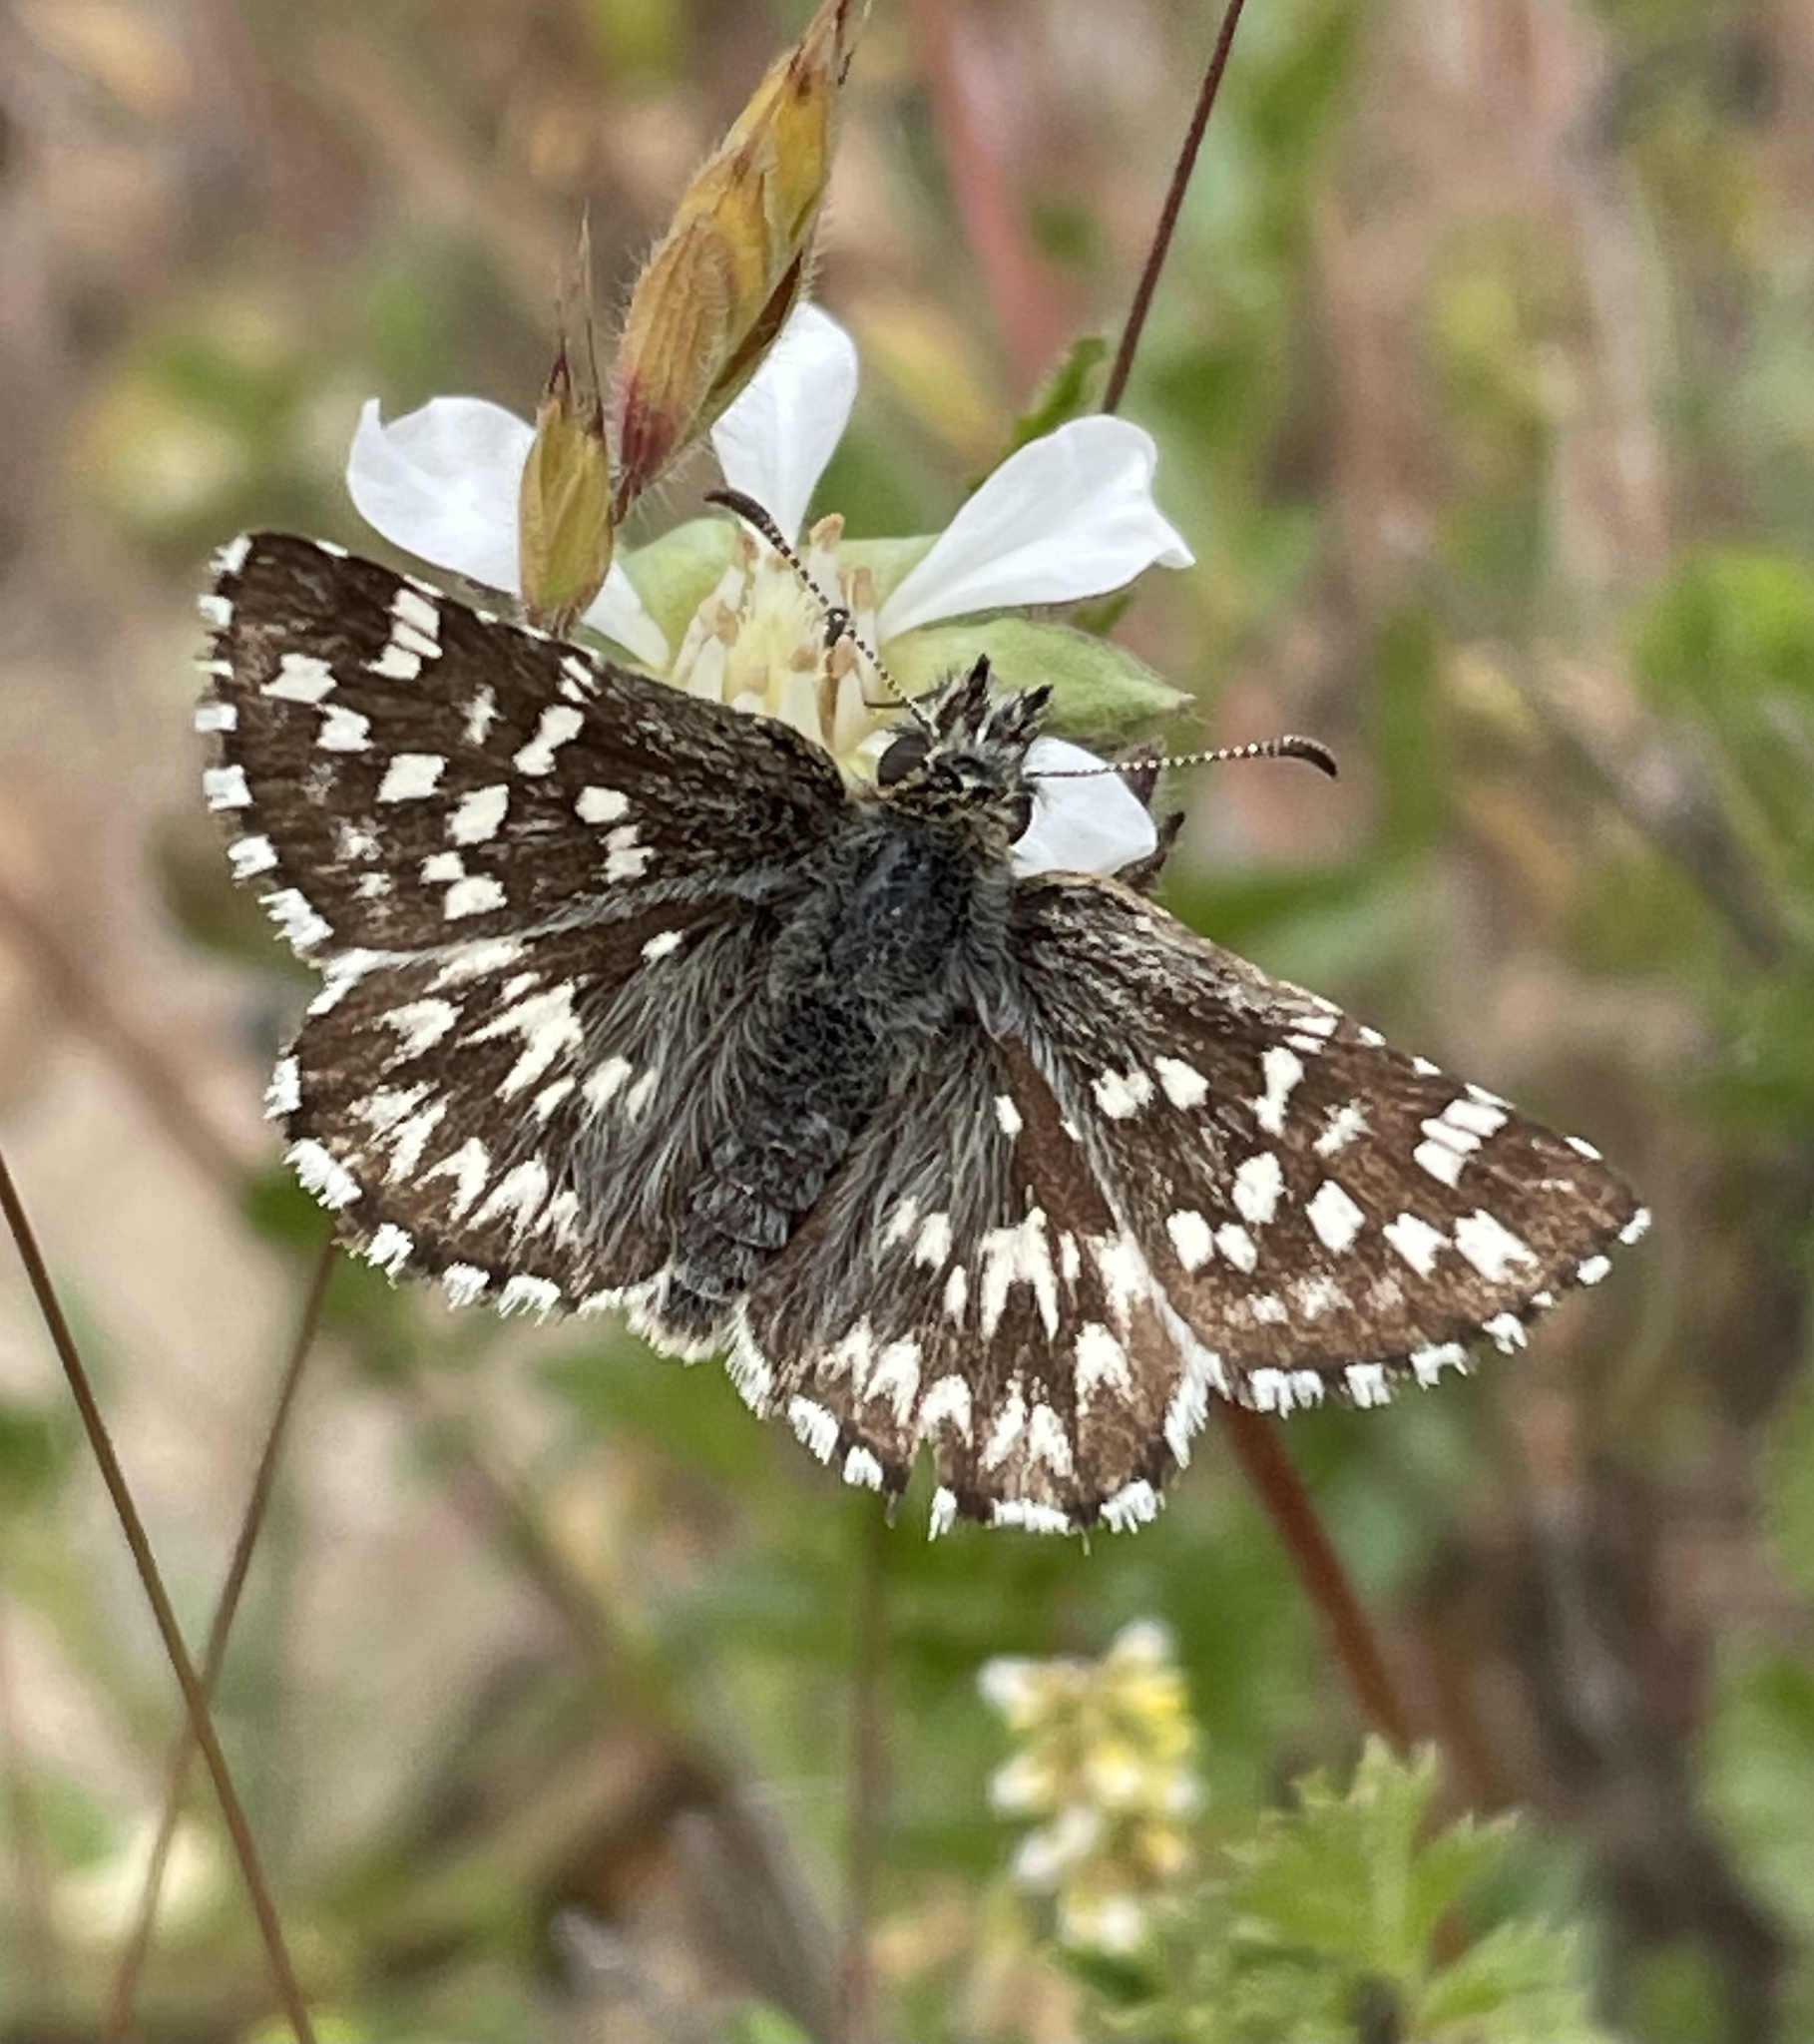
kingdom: Animalia
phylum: Arthropoda
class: Insecta
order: Lepidoptera
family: Hesperiidae
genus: Pyrgus
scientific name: Pyrgus ruralis
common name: Two-banded checkered-skipper
